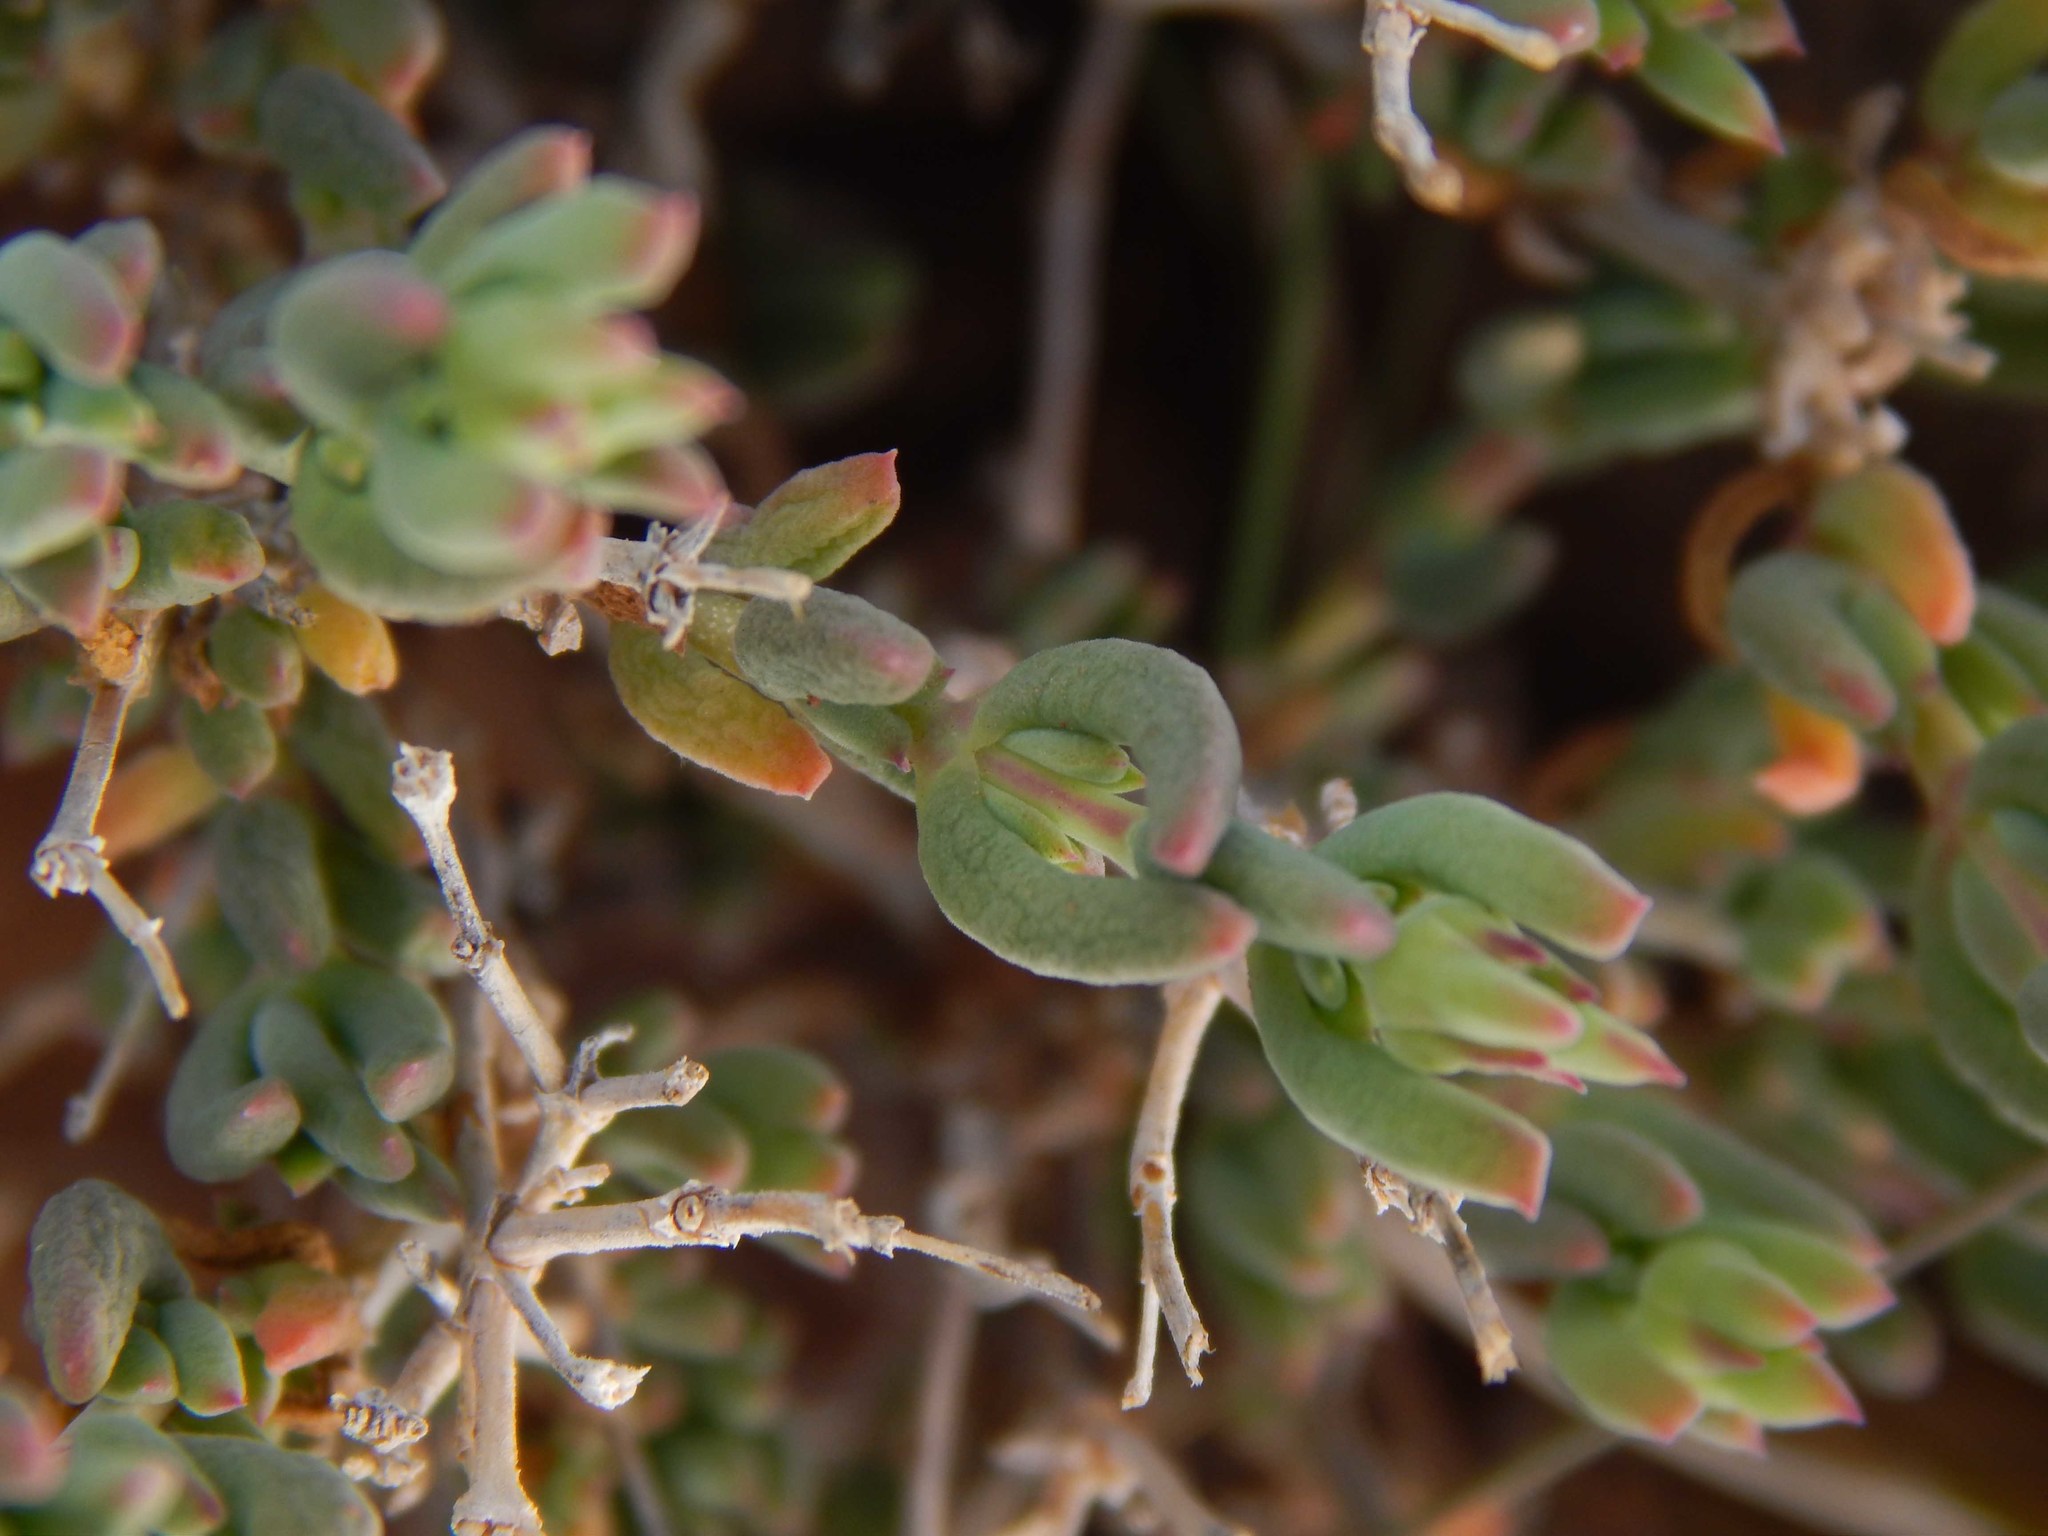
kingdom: Plantae
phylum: Tracheophyta
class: Magnoliopsida
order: Caryophyllales
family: Aizoaceae
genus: Delosperma
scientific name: Delosperma multiflorum
